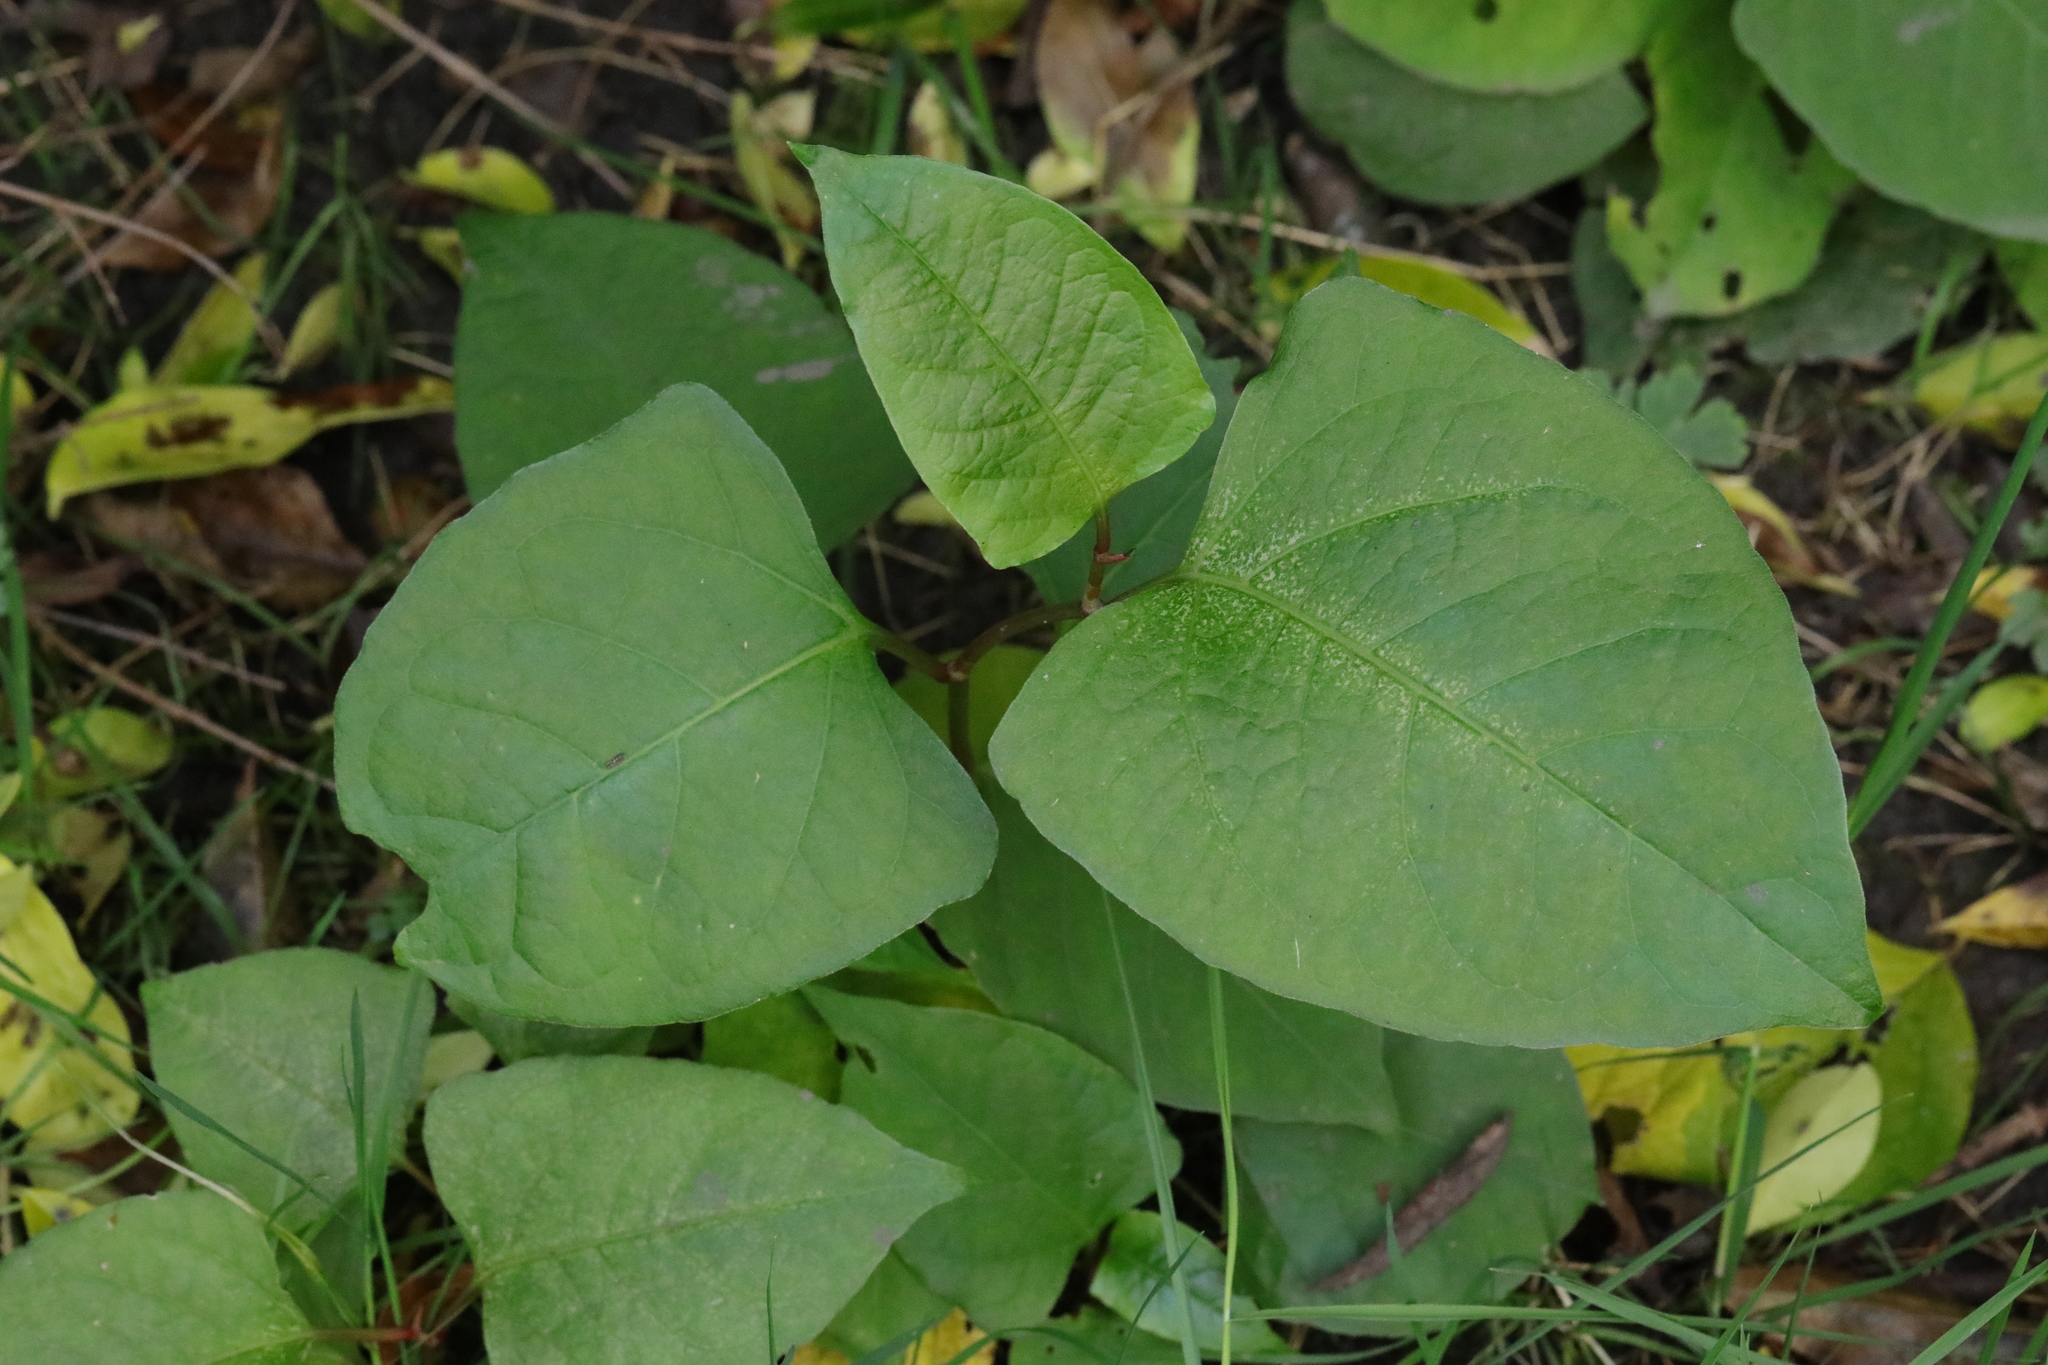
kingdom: Plantae
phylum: Tracheophyta
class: Magnoliopsida
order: Caryophyllales
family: Polygonaceae
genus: Reynoutria
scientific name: Reynoutria japonica
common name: Japanese knotweed
